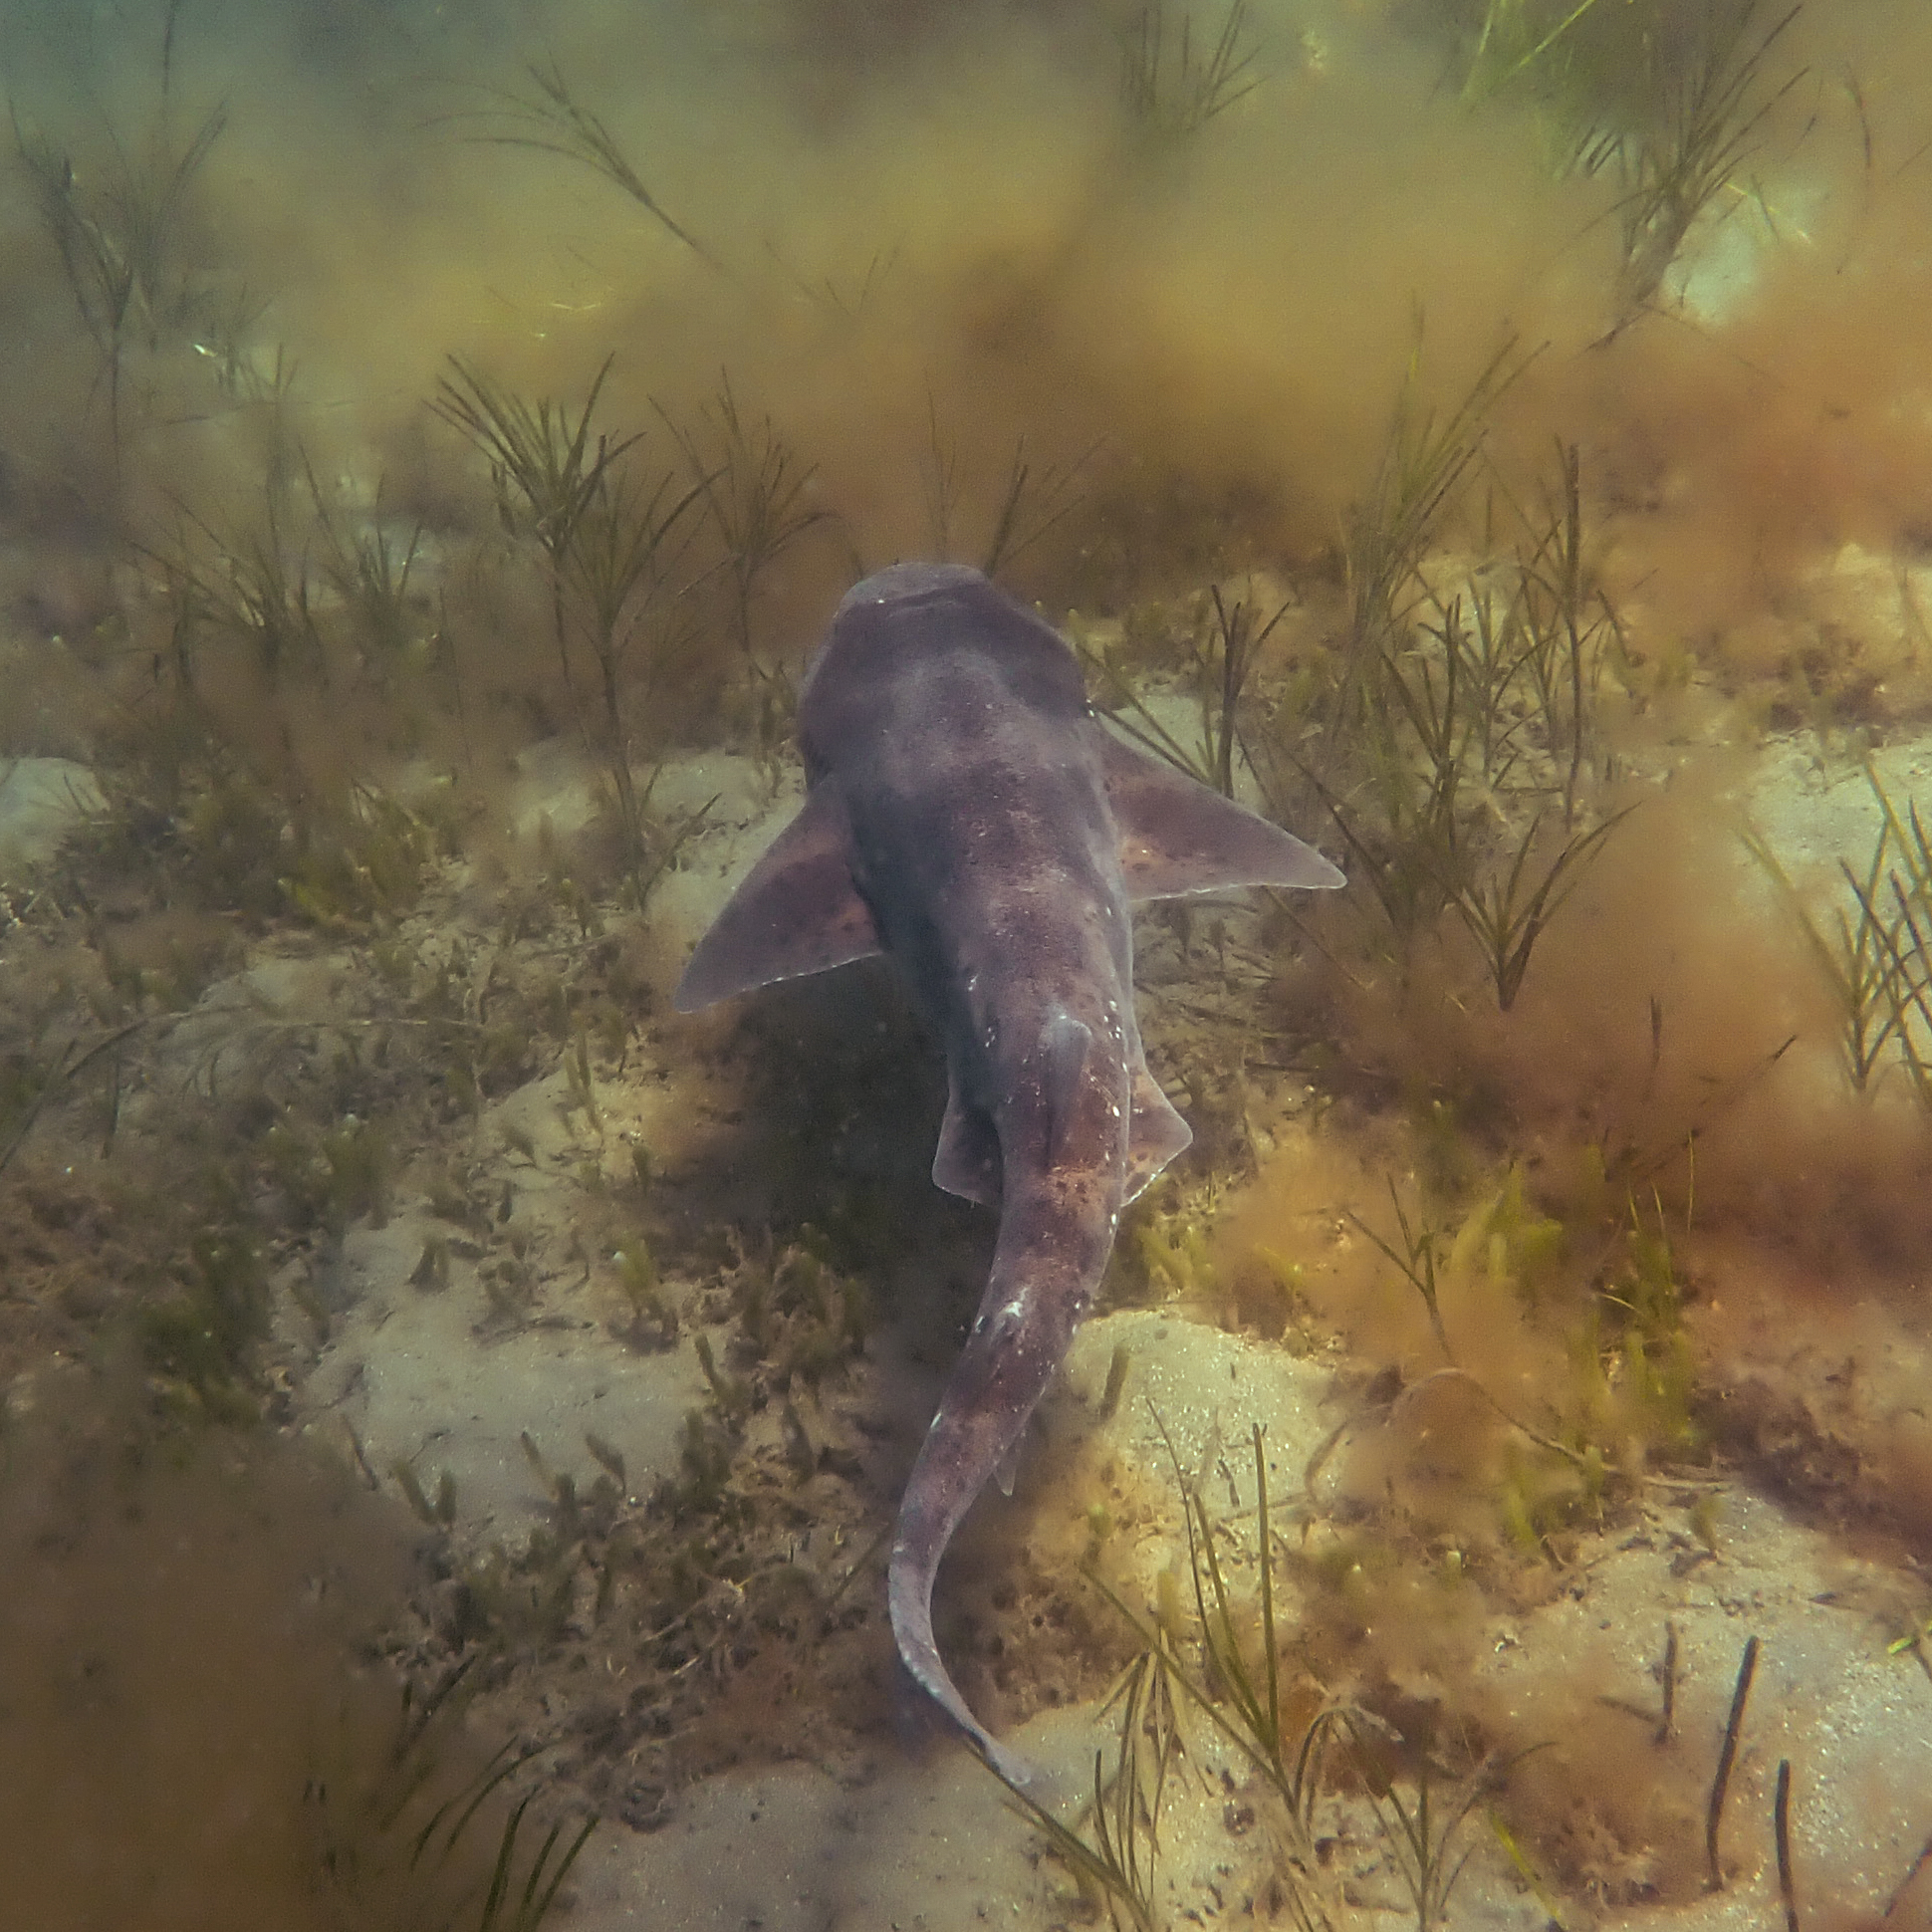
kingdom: Animalia
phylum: Chordata
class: Elasmobranchii
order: Carcharhiniformes
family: Scyliorhinidae
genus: Cephaloscyllium
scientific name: Cephaloscyllium laticeps
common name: Australian swellshark
